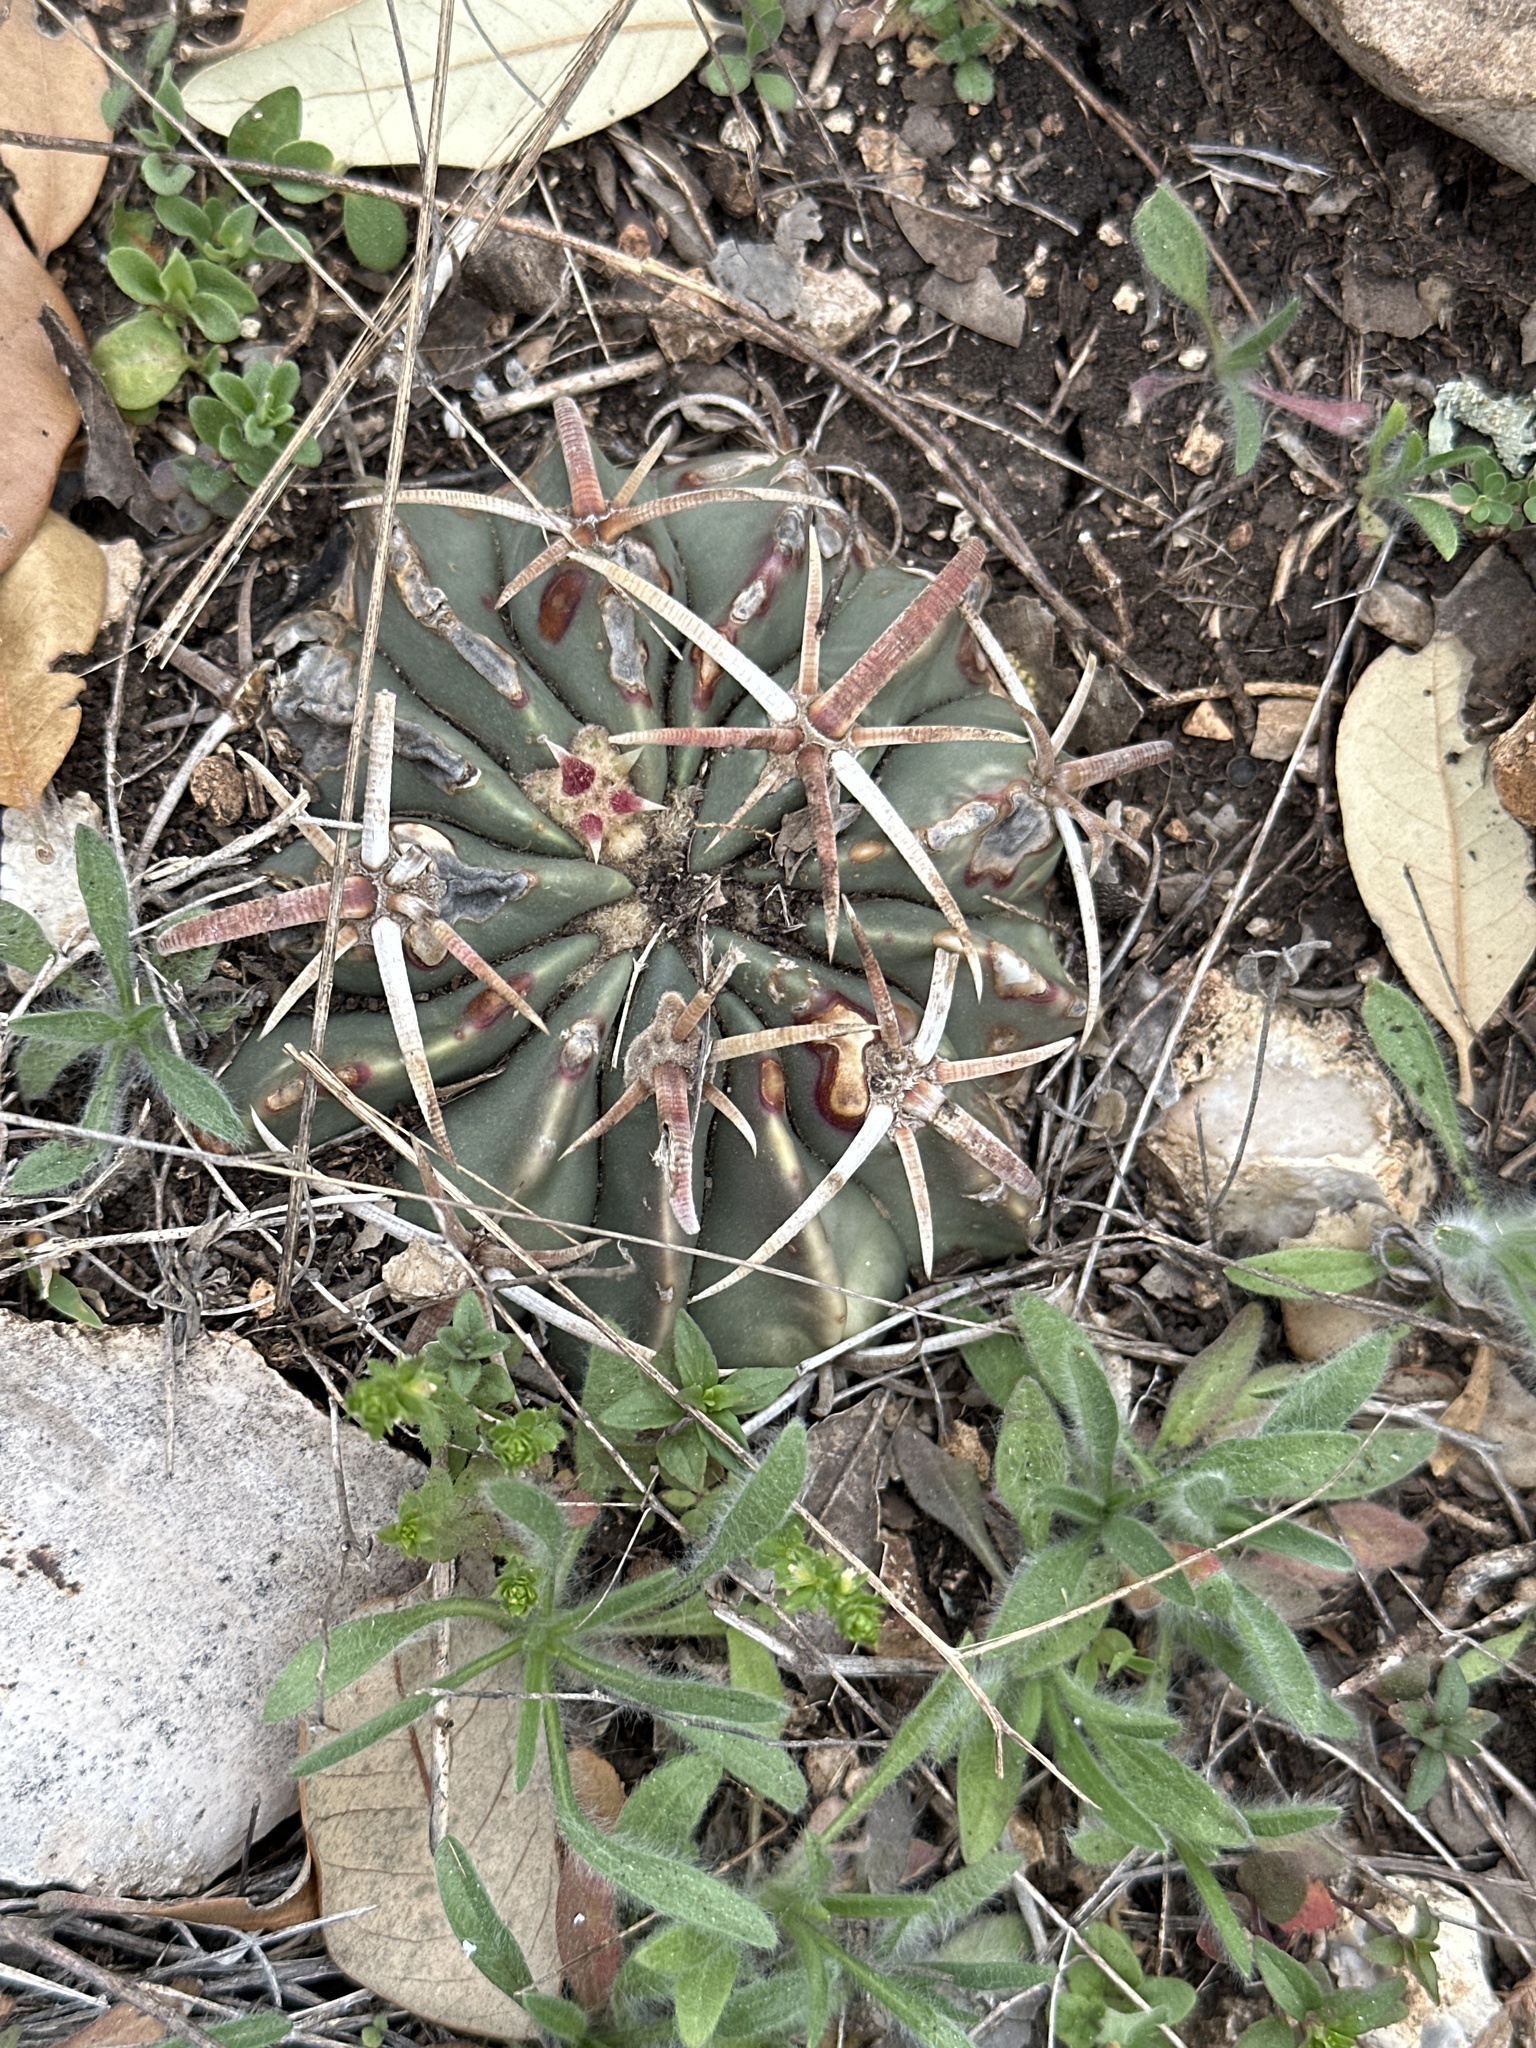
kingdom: Plantae
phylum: Tracheophyta
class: Magnoliopsida
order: Caryophyllales
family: Cactaceae
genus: Echinocactus
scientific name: Echinocactus texensis
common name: Devil's pincushion
